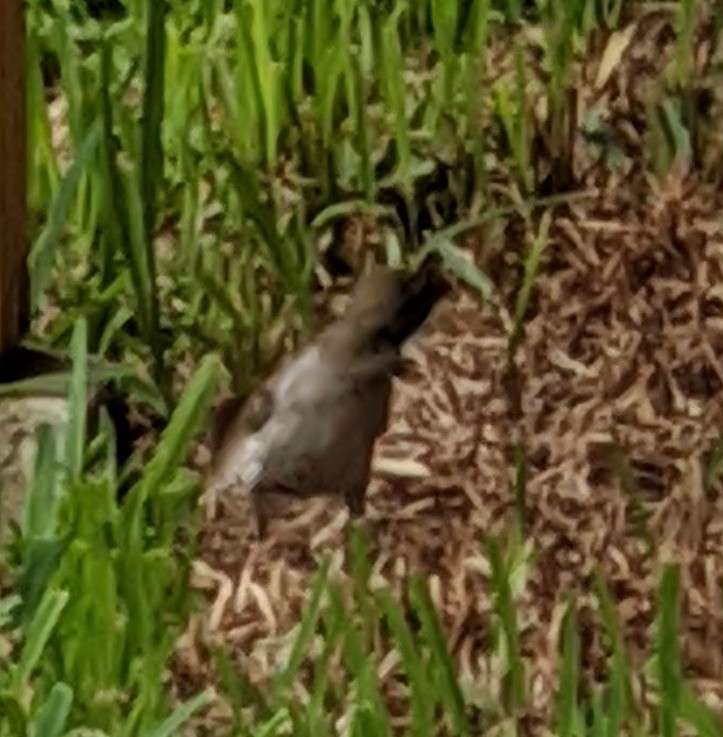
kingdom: Animalia
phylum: Chordata
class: Aves
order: Passeriformes
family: Passeridae
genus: Passer
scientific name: Passer domesticus
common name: House sparrow
